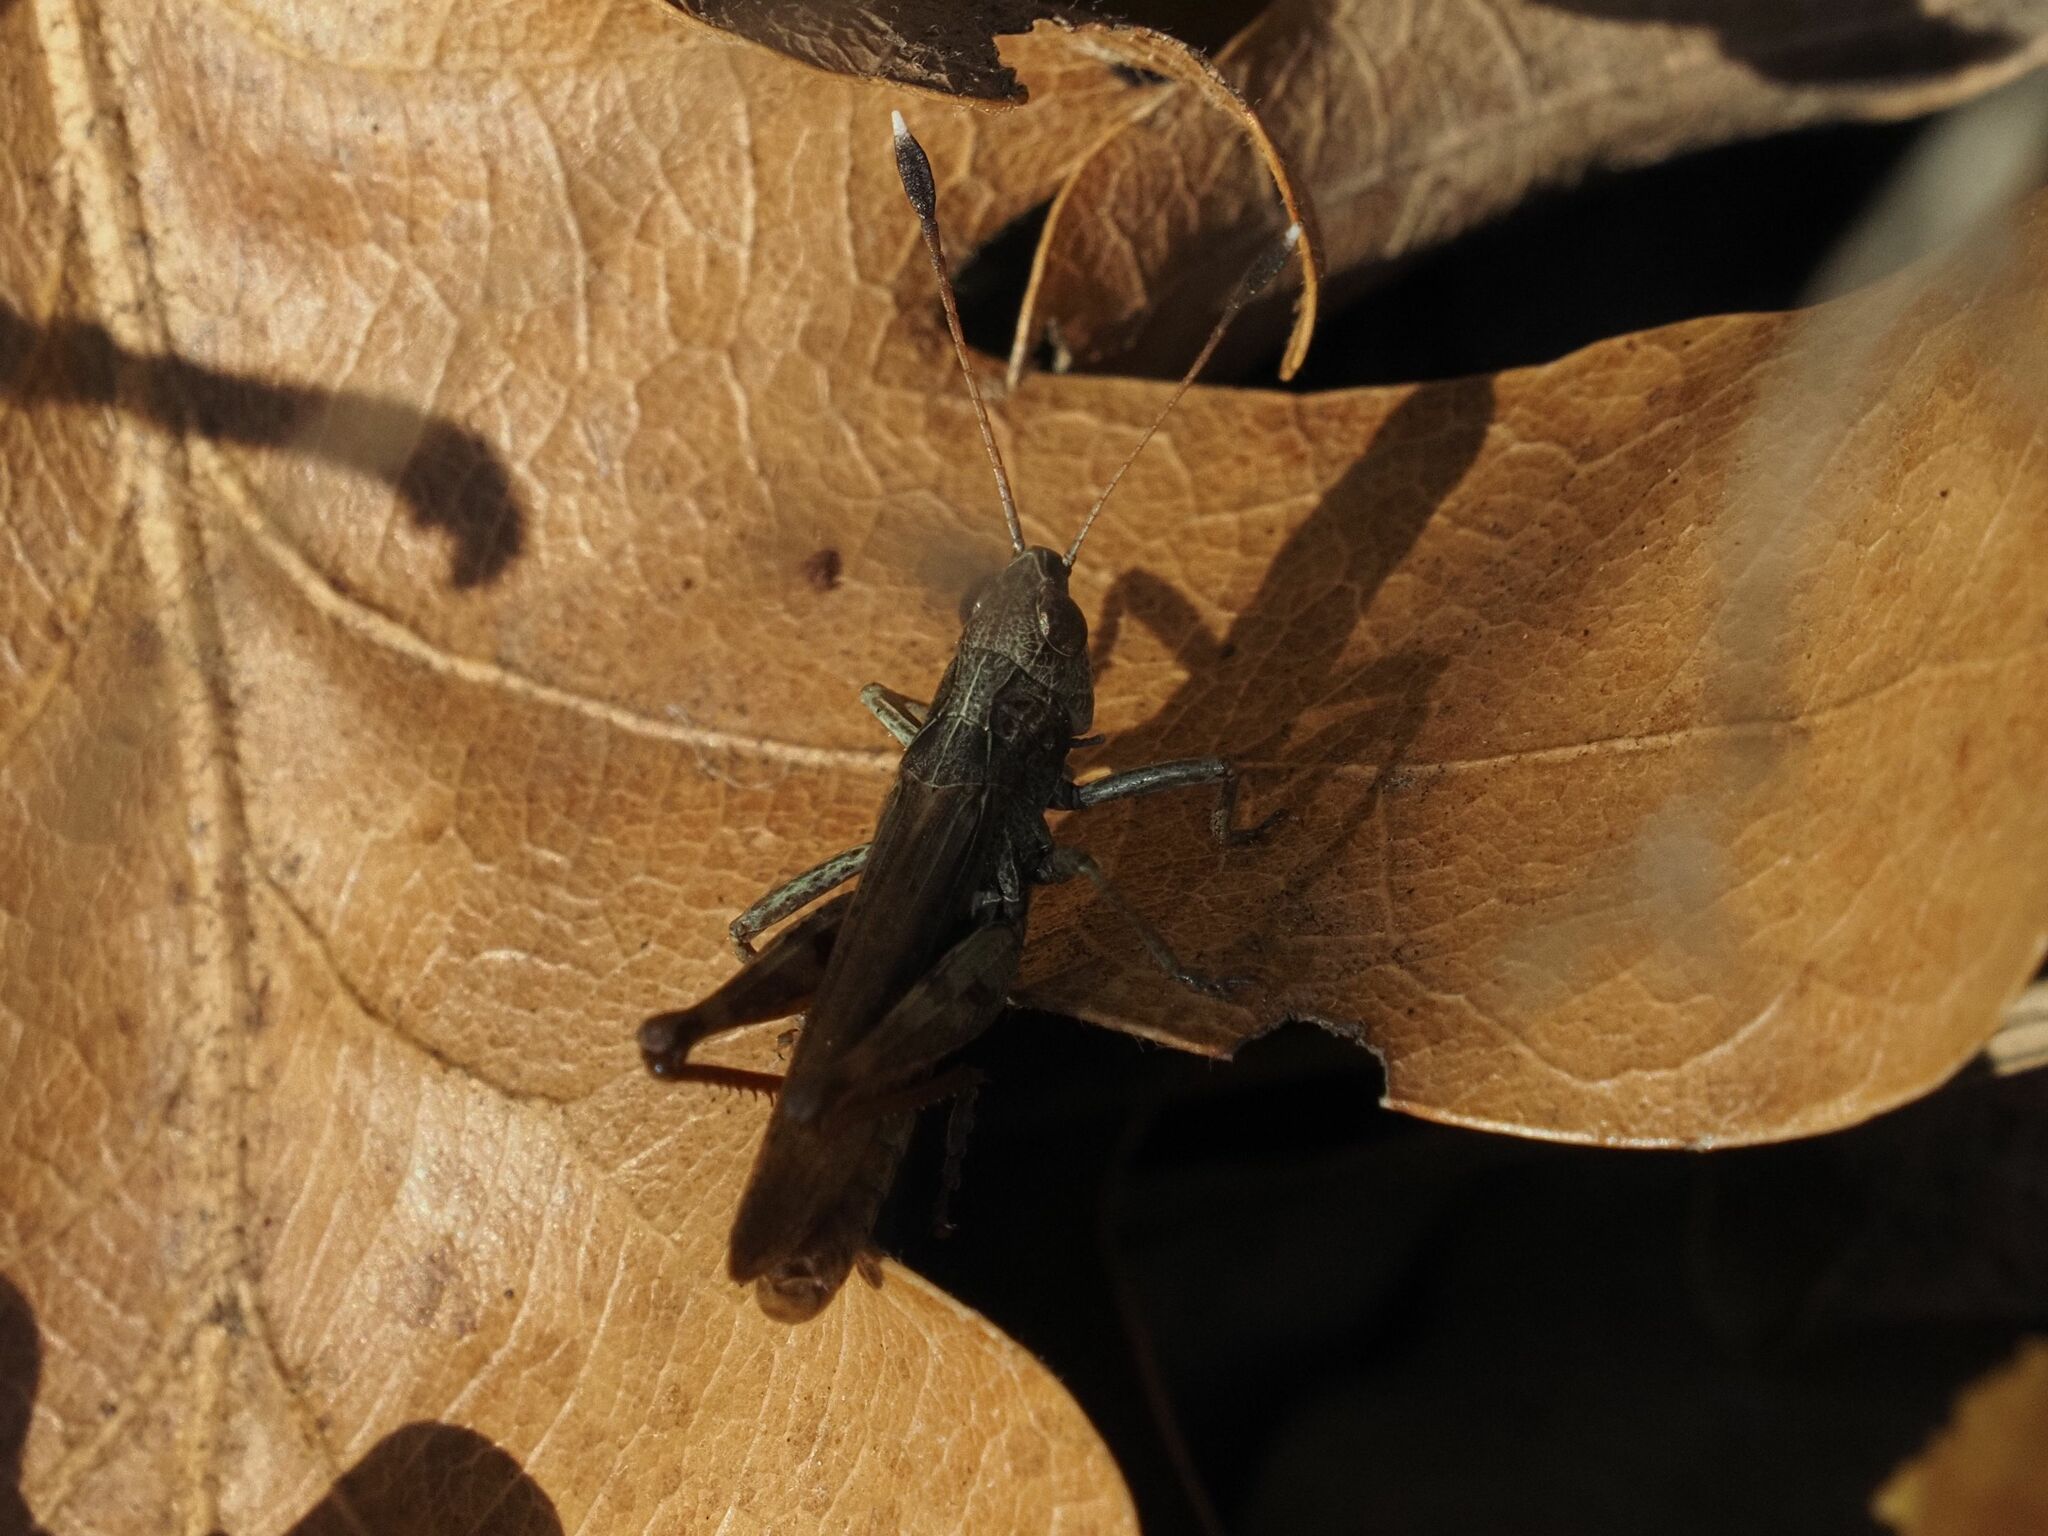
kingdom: Animalia
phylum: Arthropoda
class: Insecta
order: Orthoptera
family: Acrididae
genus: Gomphocerippus
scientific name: Gomphocerippus rufus
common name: Rufous grasshopper
